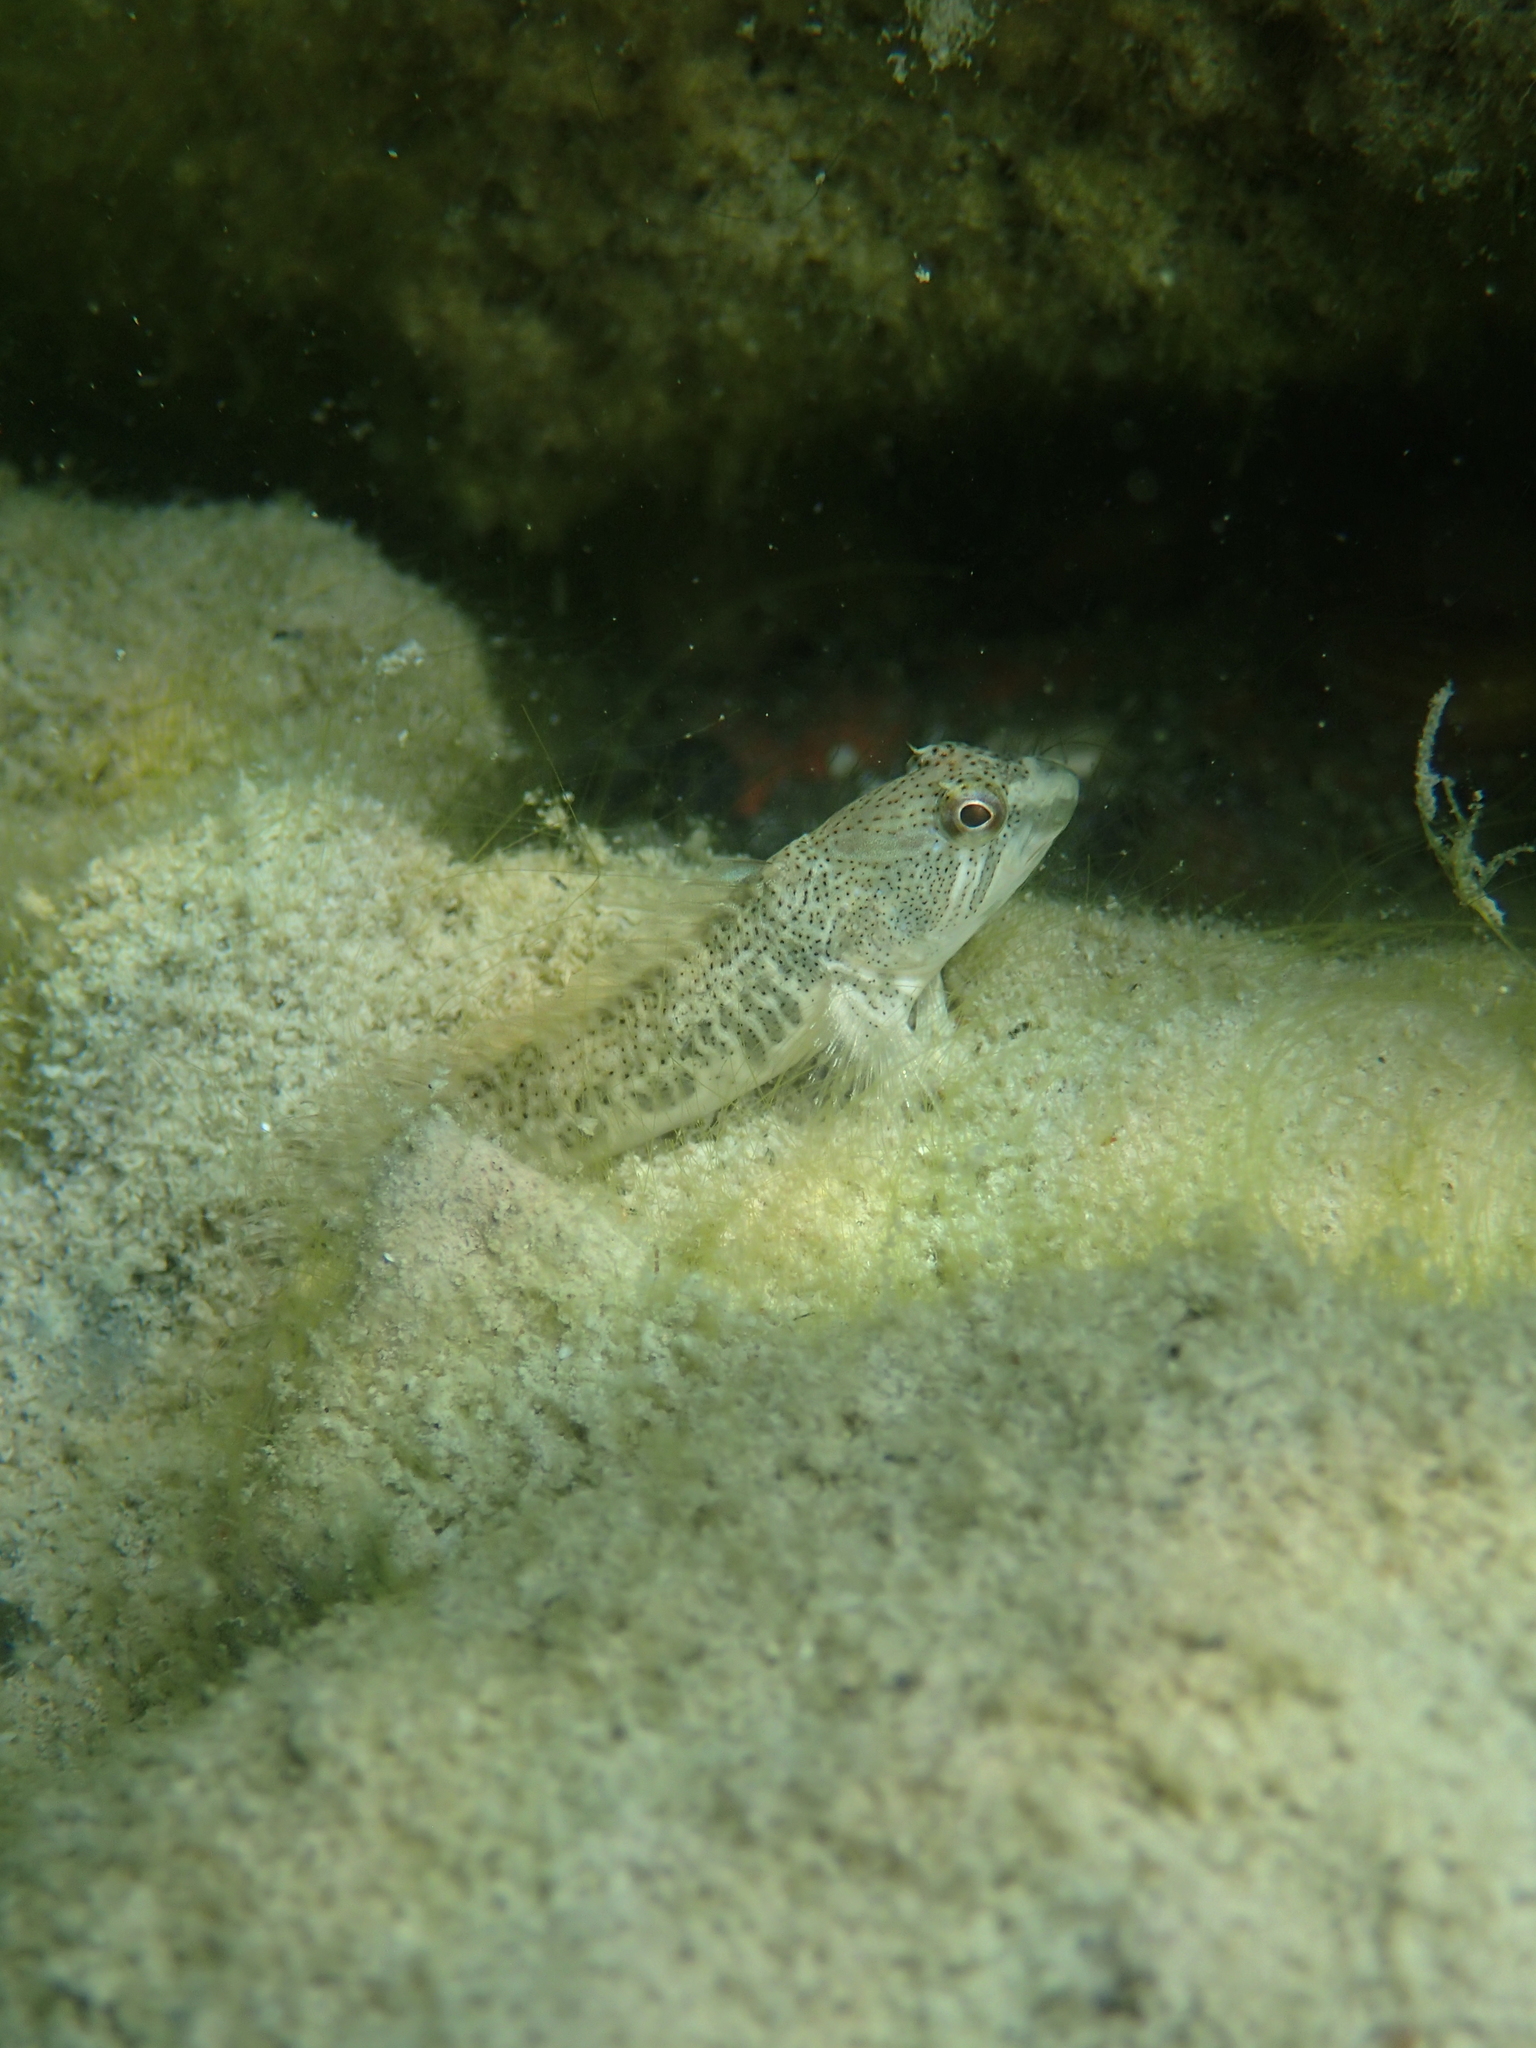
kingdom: Animalia
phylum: Chordata
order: Perciformes
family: Blenniidae
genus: Salaria
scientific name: Salaria fluviatilis
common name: Freshwater blenny
